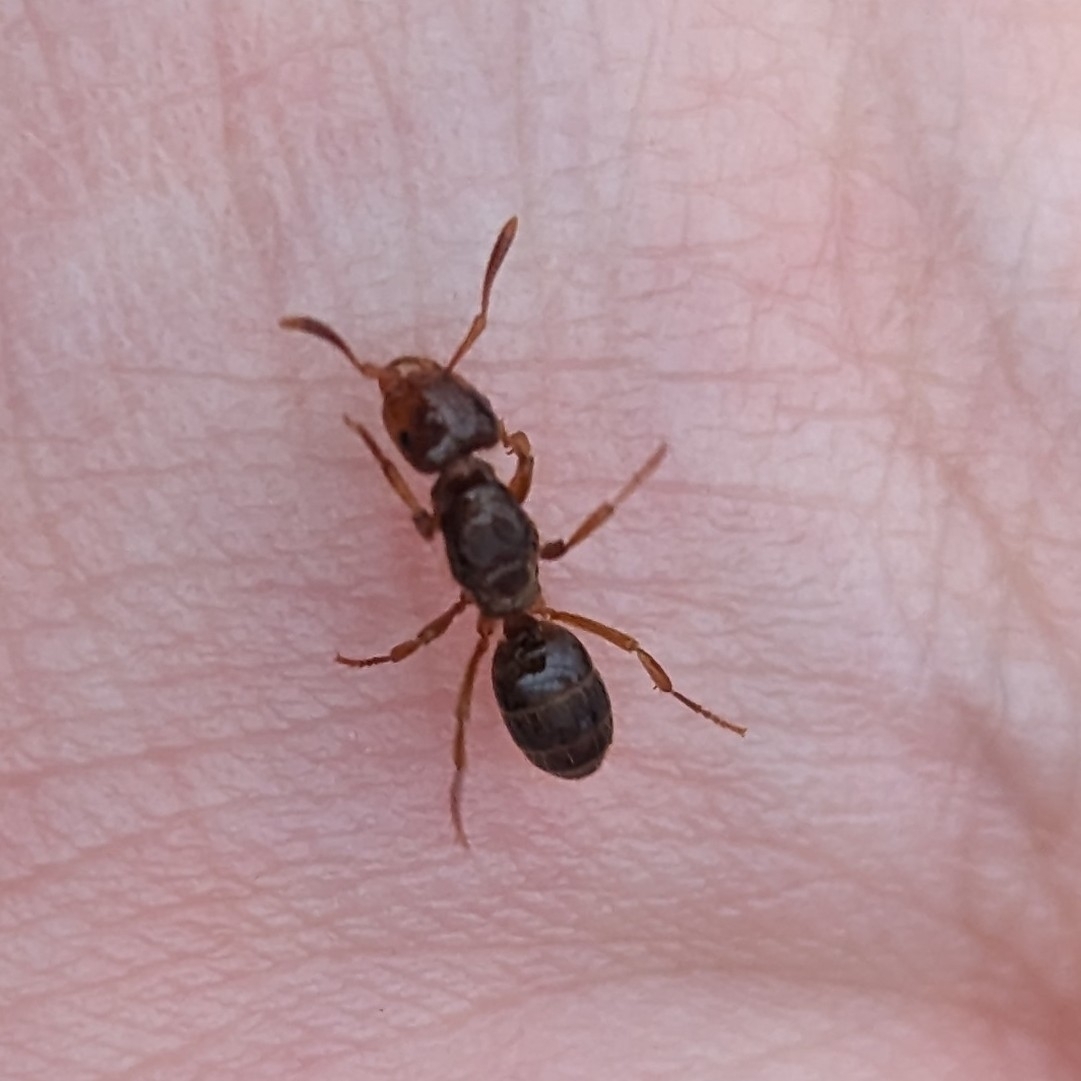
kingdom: Animalia
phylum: Arthropoda
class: Insecta
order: Hymenoptera
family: Formicidae
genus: Lasius
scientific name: Lasius claviger
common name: Common citronella ant
